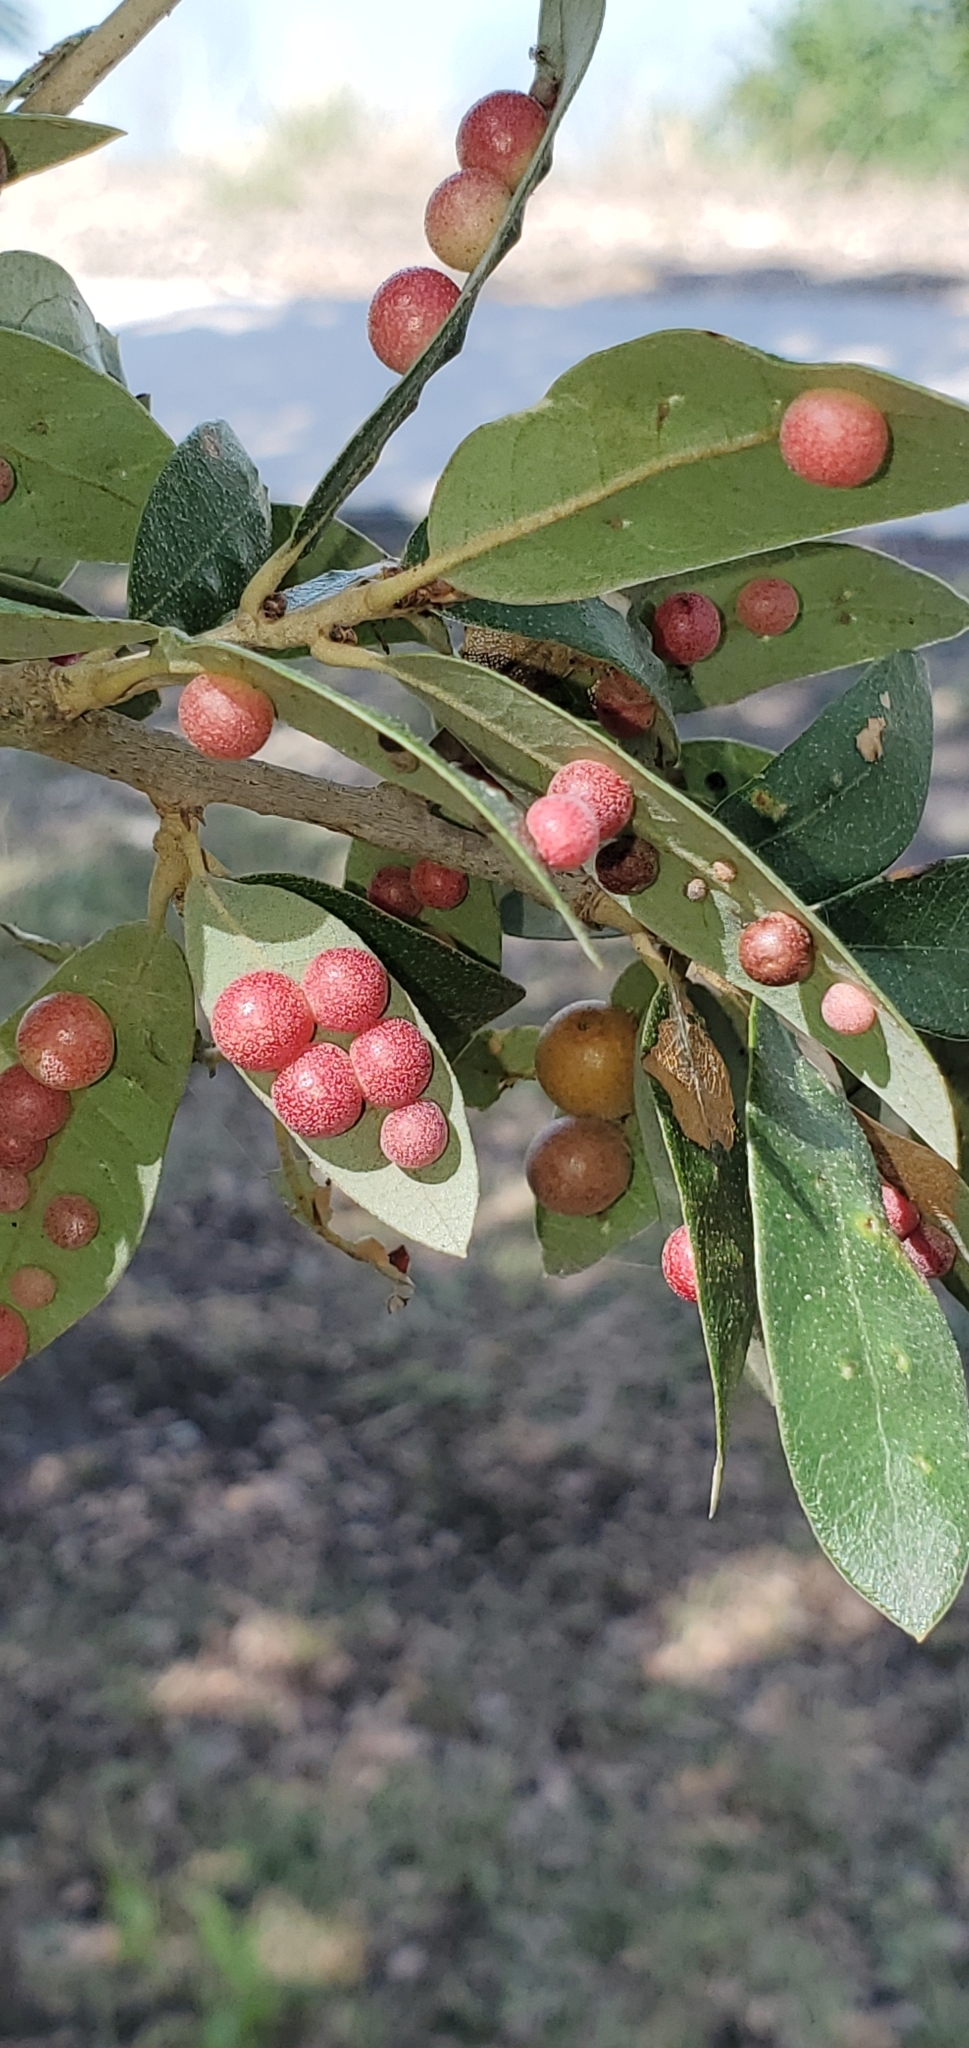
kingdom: Animalia
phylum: Arthropoda
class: Insecta
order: Hymenoptera
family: Cynipidae
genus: Belonocnema
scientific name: Belonocnema kinseyi
